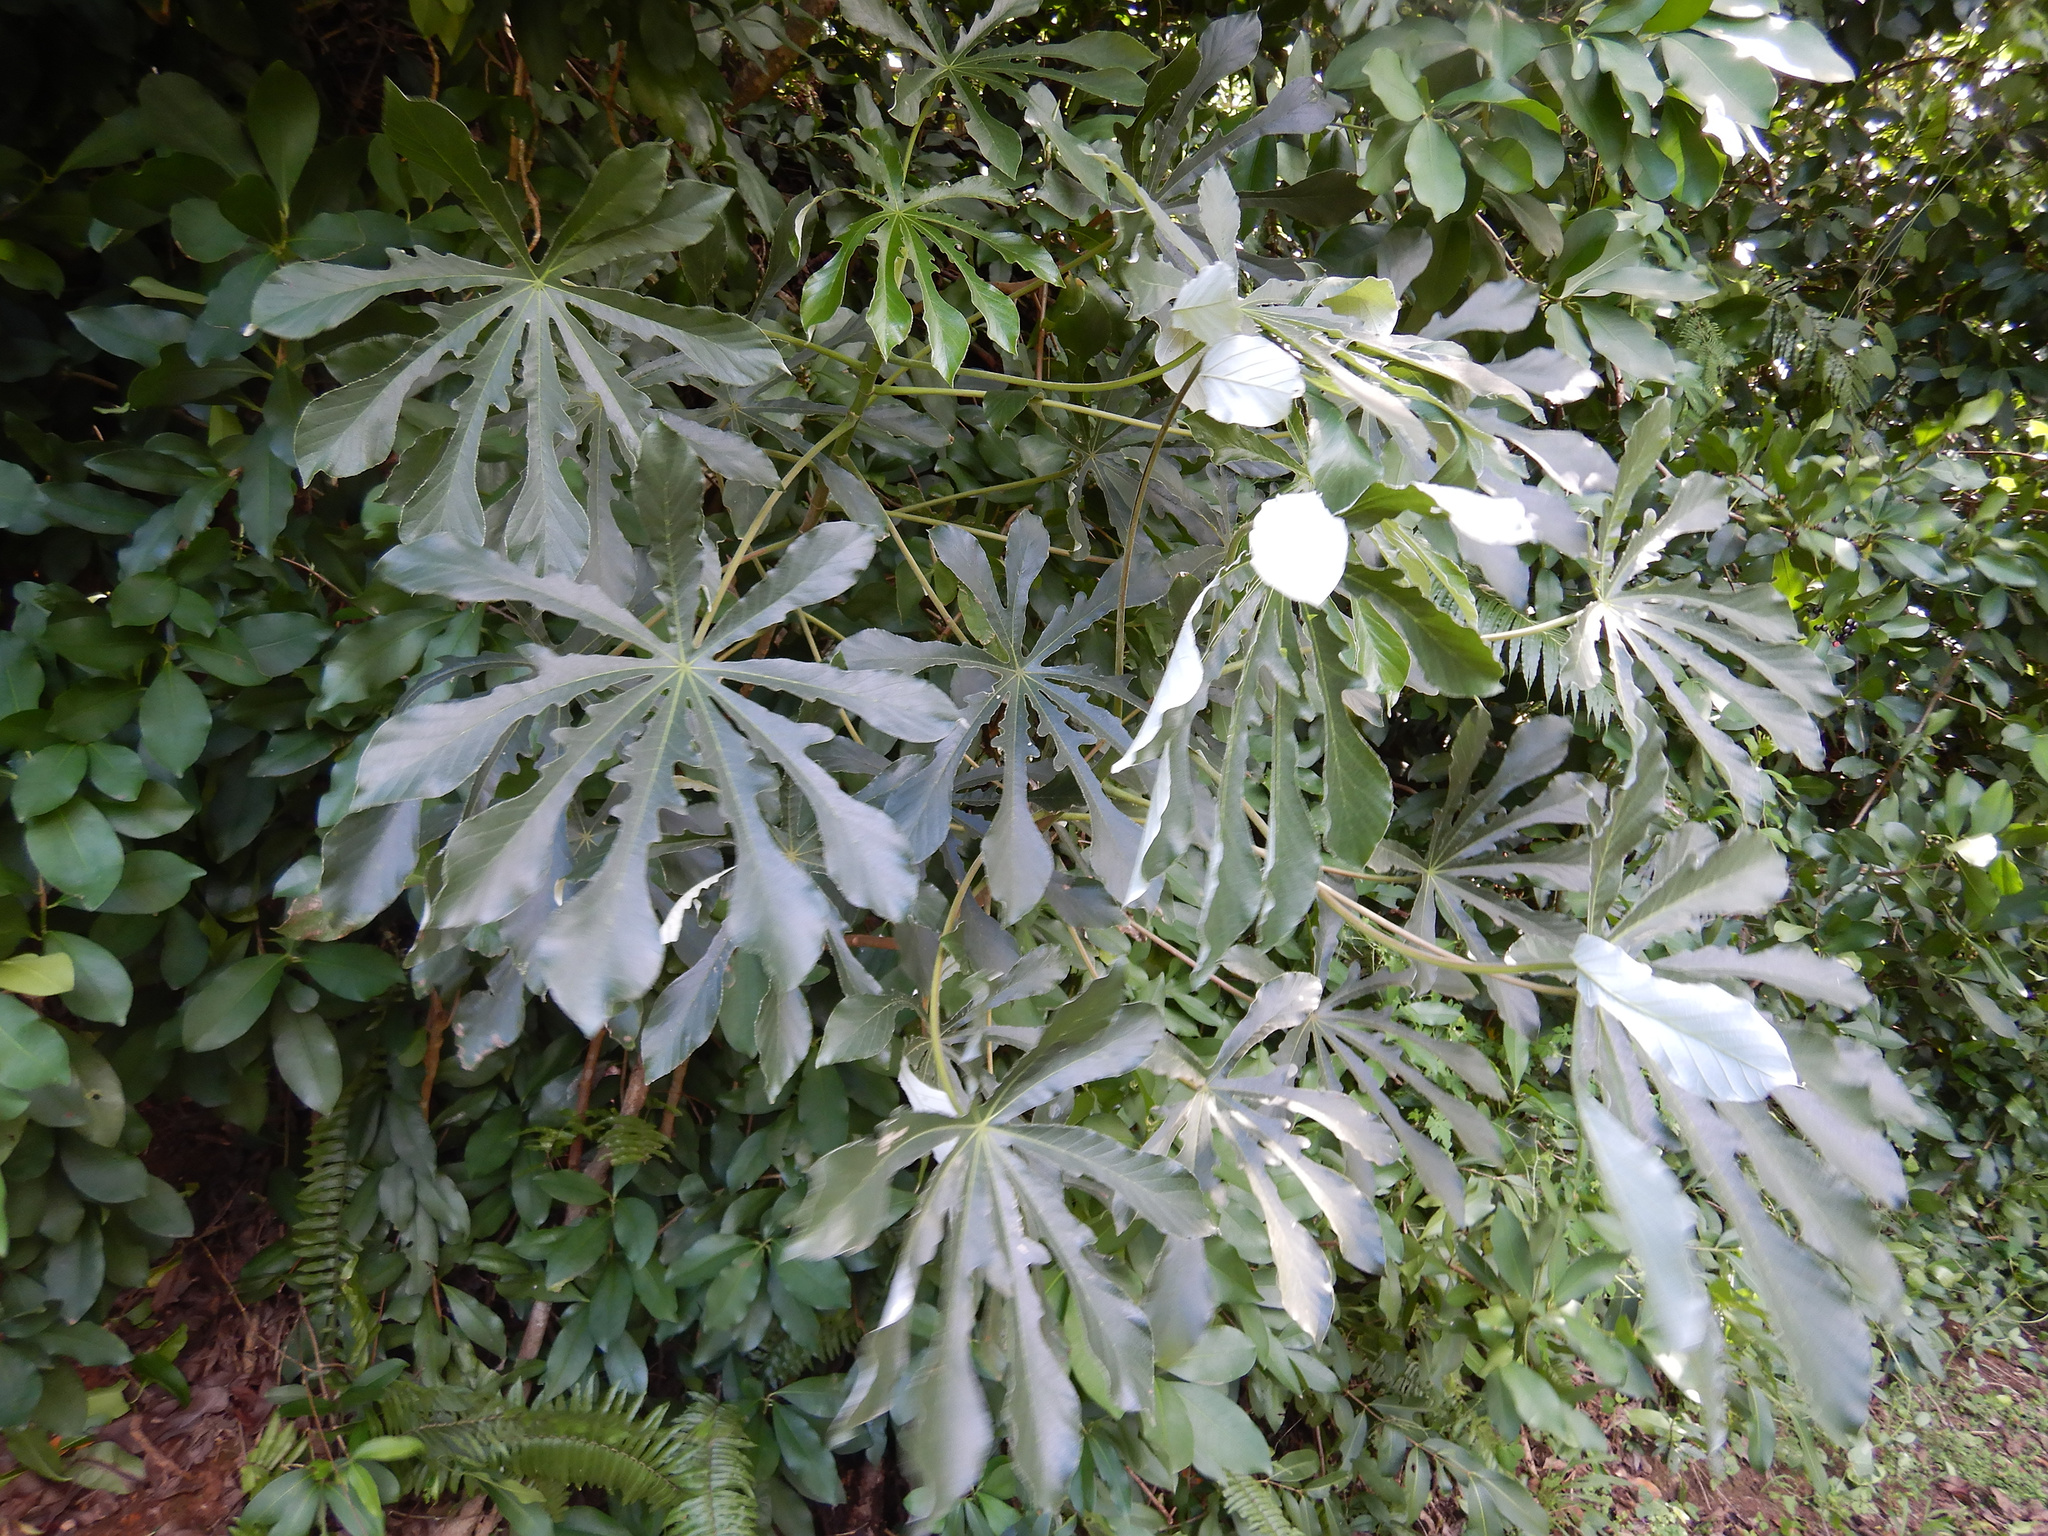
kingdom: Plantae
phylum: Tracheophyta
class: Magnoliopsida
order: Rosales
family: Urticaceae
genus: Cecropia
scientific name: Cecropia pachystachya
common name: Ambay pumpwood
